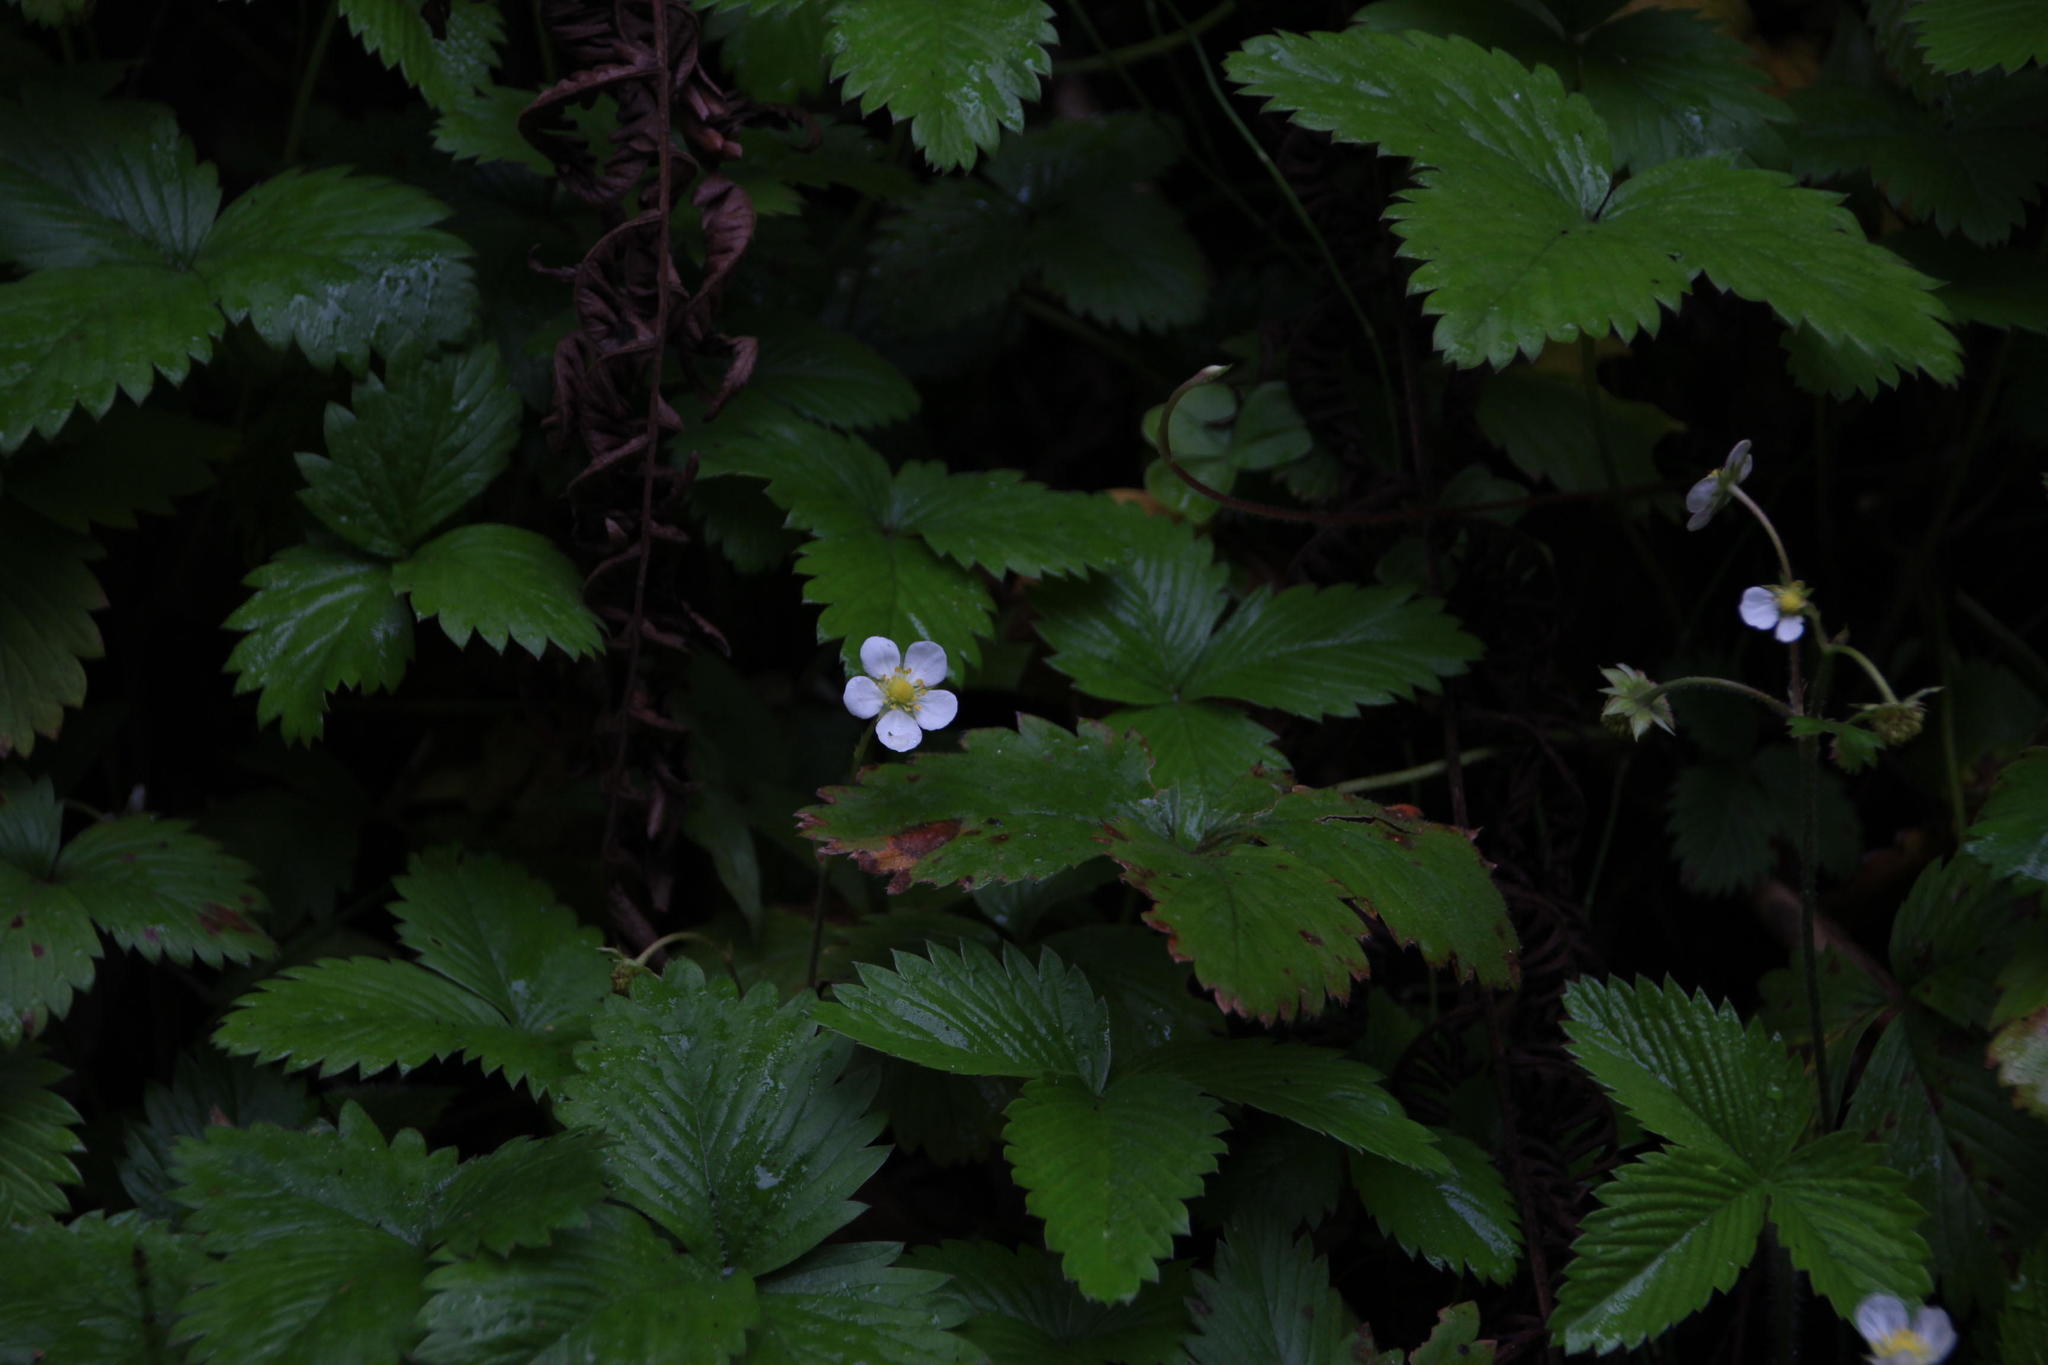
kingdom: Plantae
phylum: Tracheophyta
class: Magnoliopsida
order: Rosales
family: Rosaceae
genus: Fragaria
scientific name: Fragaria vesca
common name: Wild strawberry
